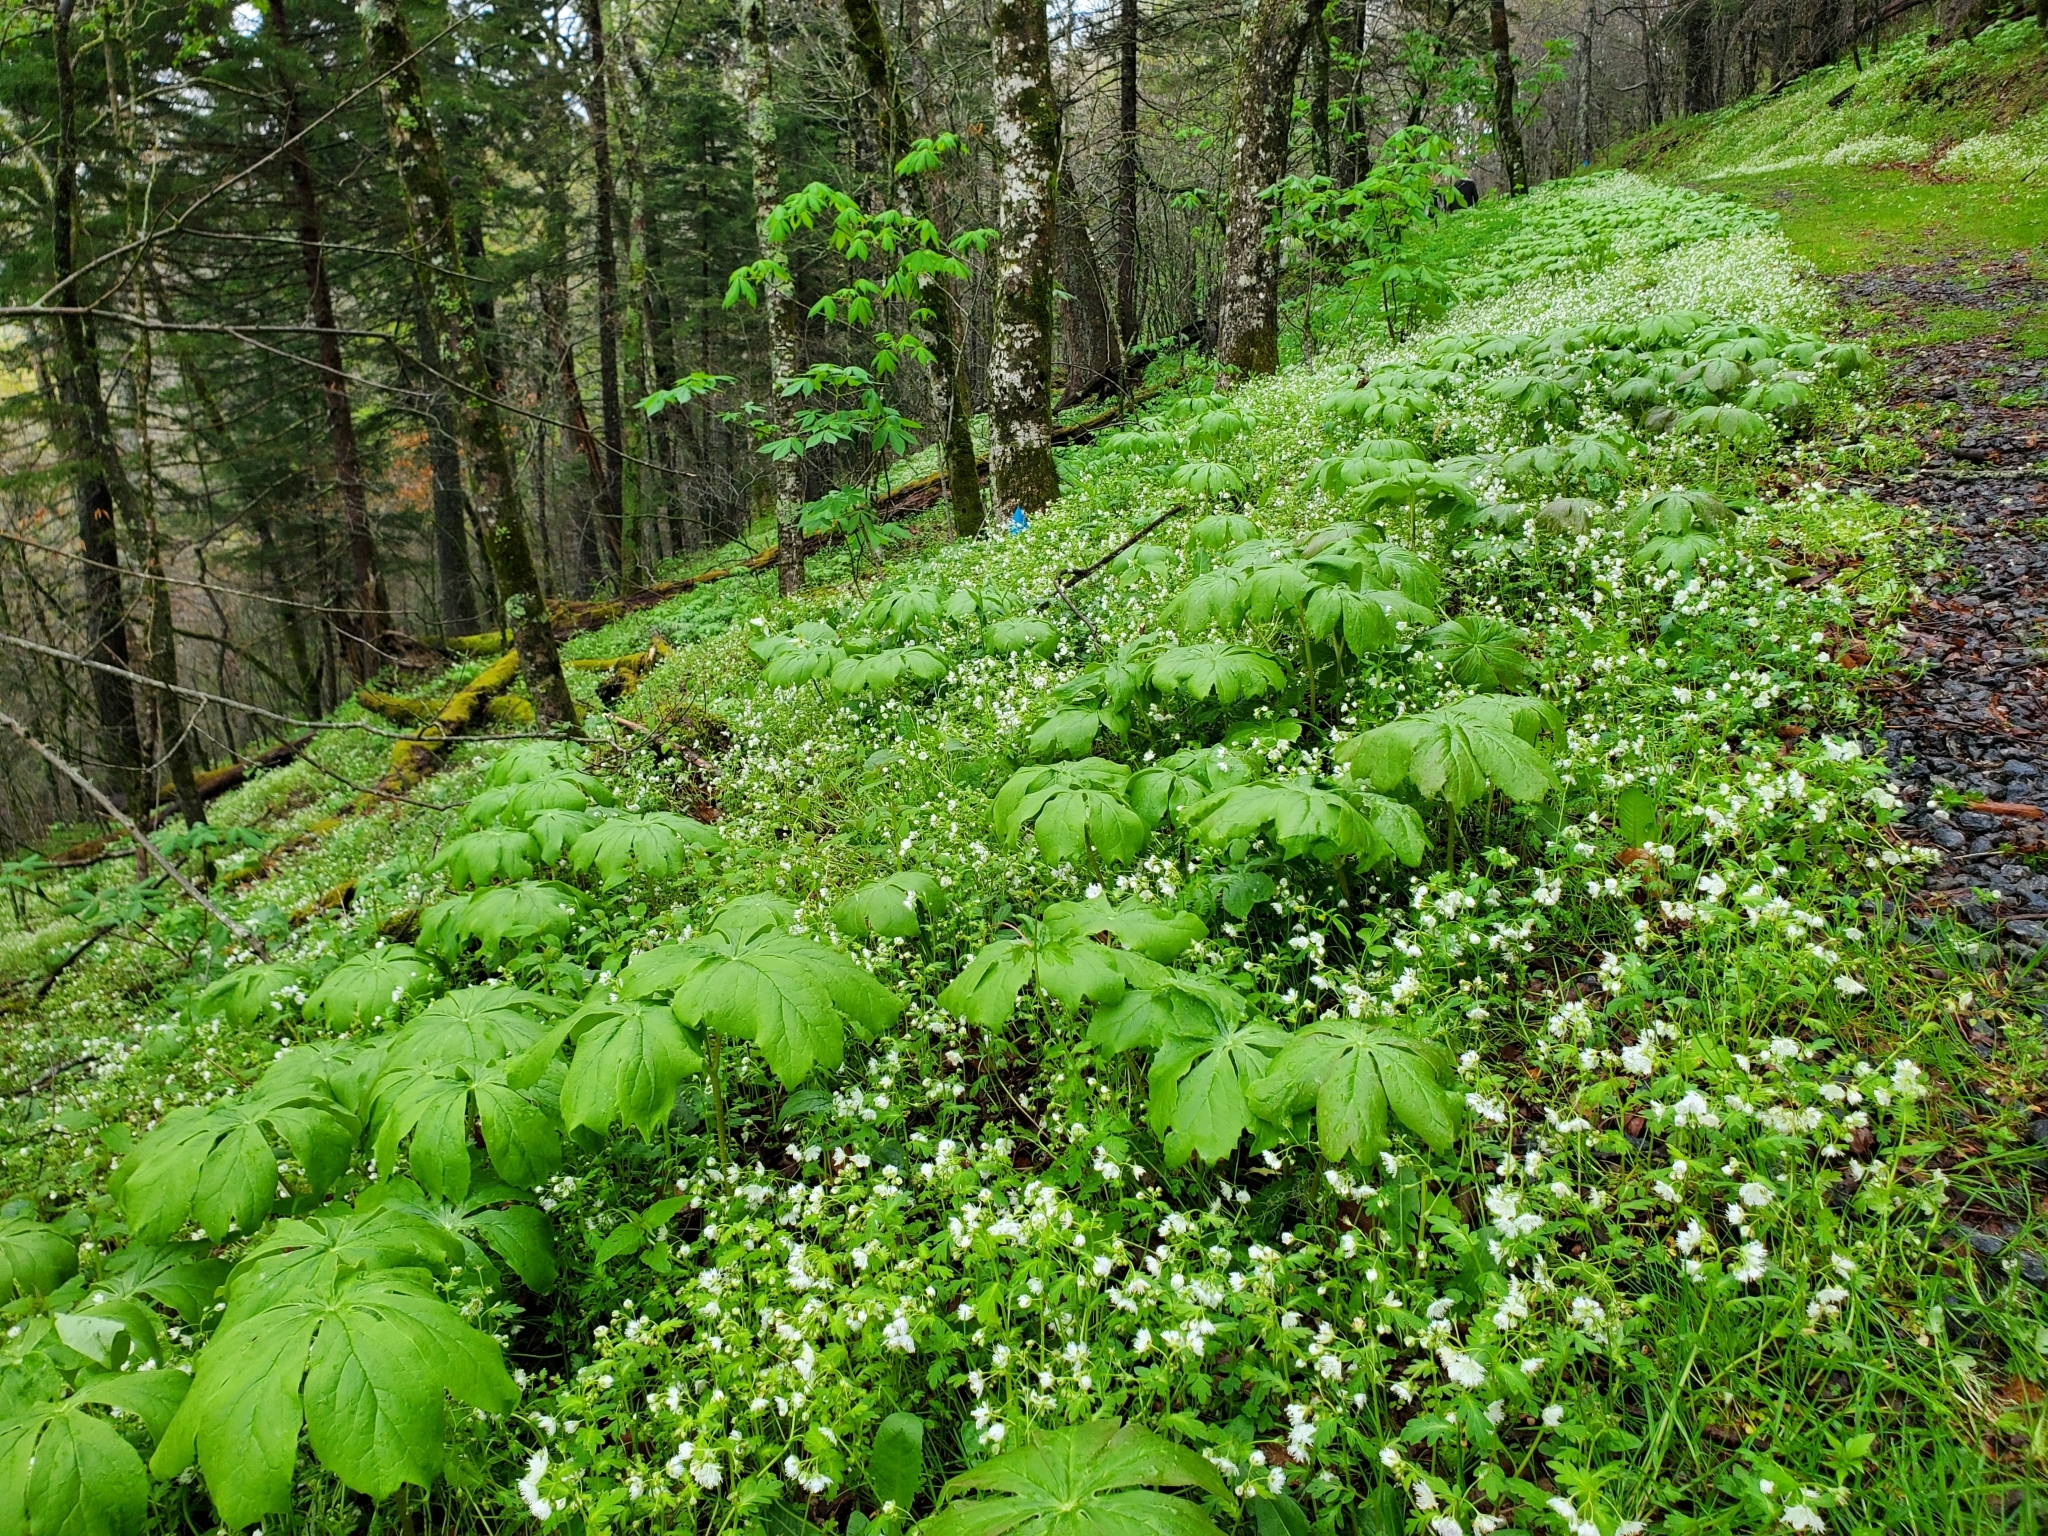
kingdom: Plantae
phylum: Tracheophyta
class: Magnoliopsida
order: Ranunculales
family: Berberidaceae
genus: Podophyllum
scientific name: Podophyllum peltatum
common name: Wild mandrake
